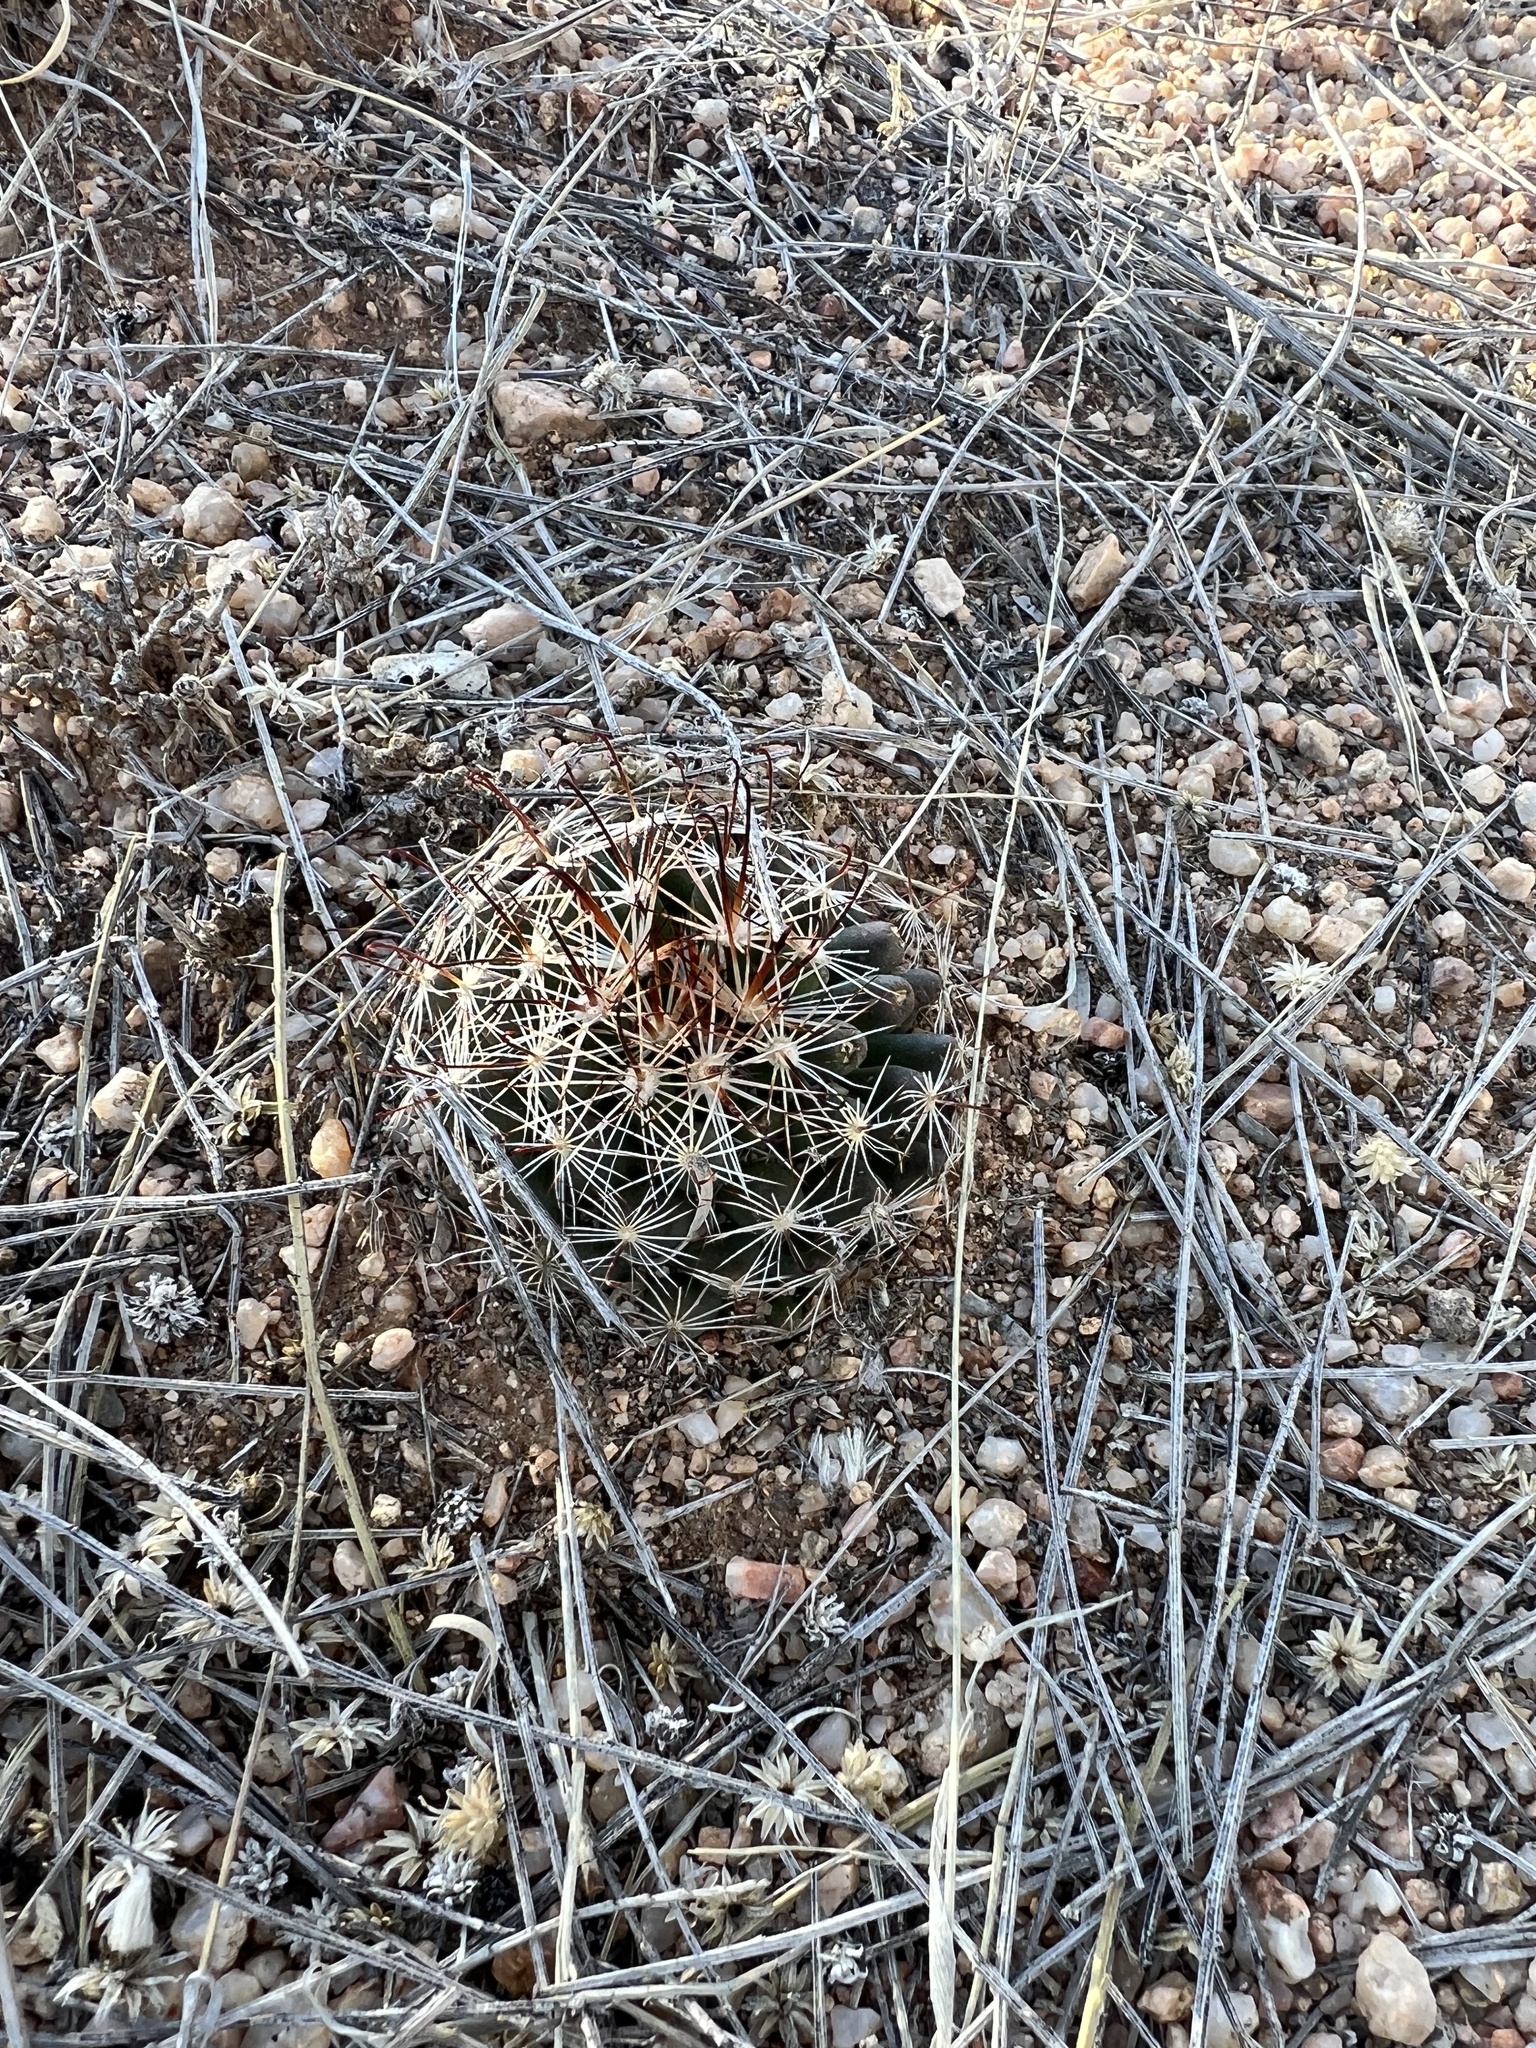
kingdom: Plantae
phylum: Tracheophyta
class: Magnoliopsida
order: Caryophyllales
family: Cactaceae
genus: Cochemiea
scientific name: Cochemiea wrightii
